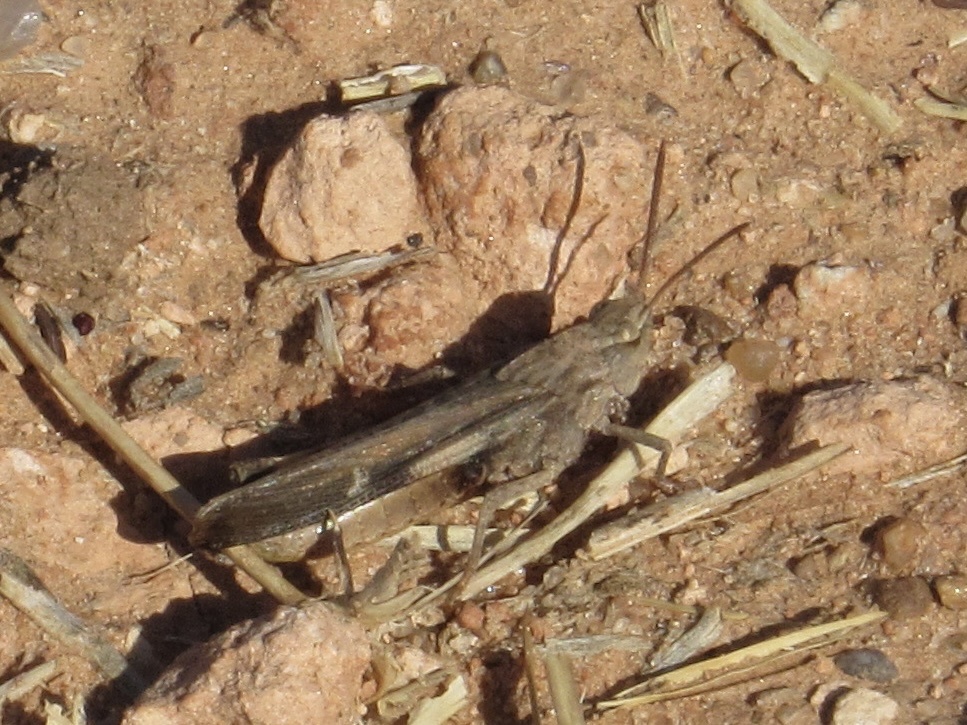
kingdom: Animalia
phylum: Arthropoda
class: Insecta
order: Orthoptera
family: Acrididae
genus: Chortophaga
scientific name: Chortophaga viridifasciata
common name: Green-striped grasshopper
